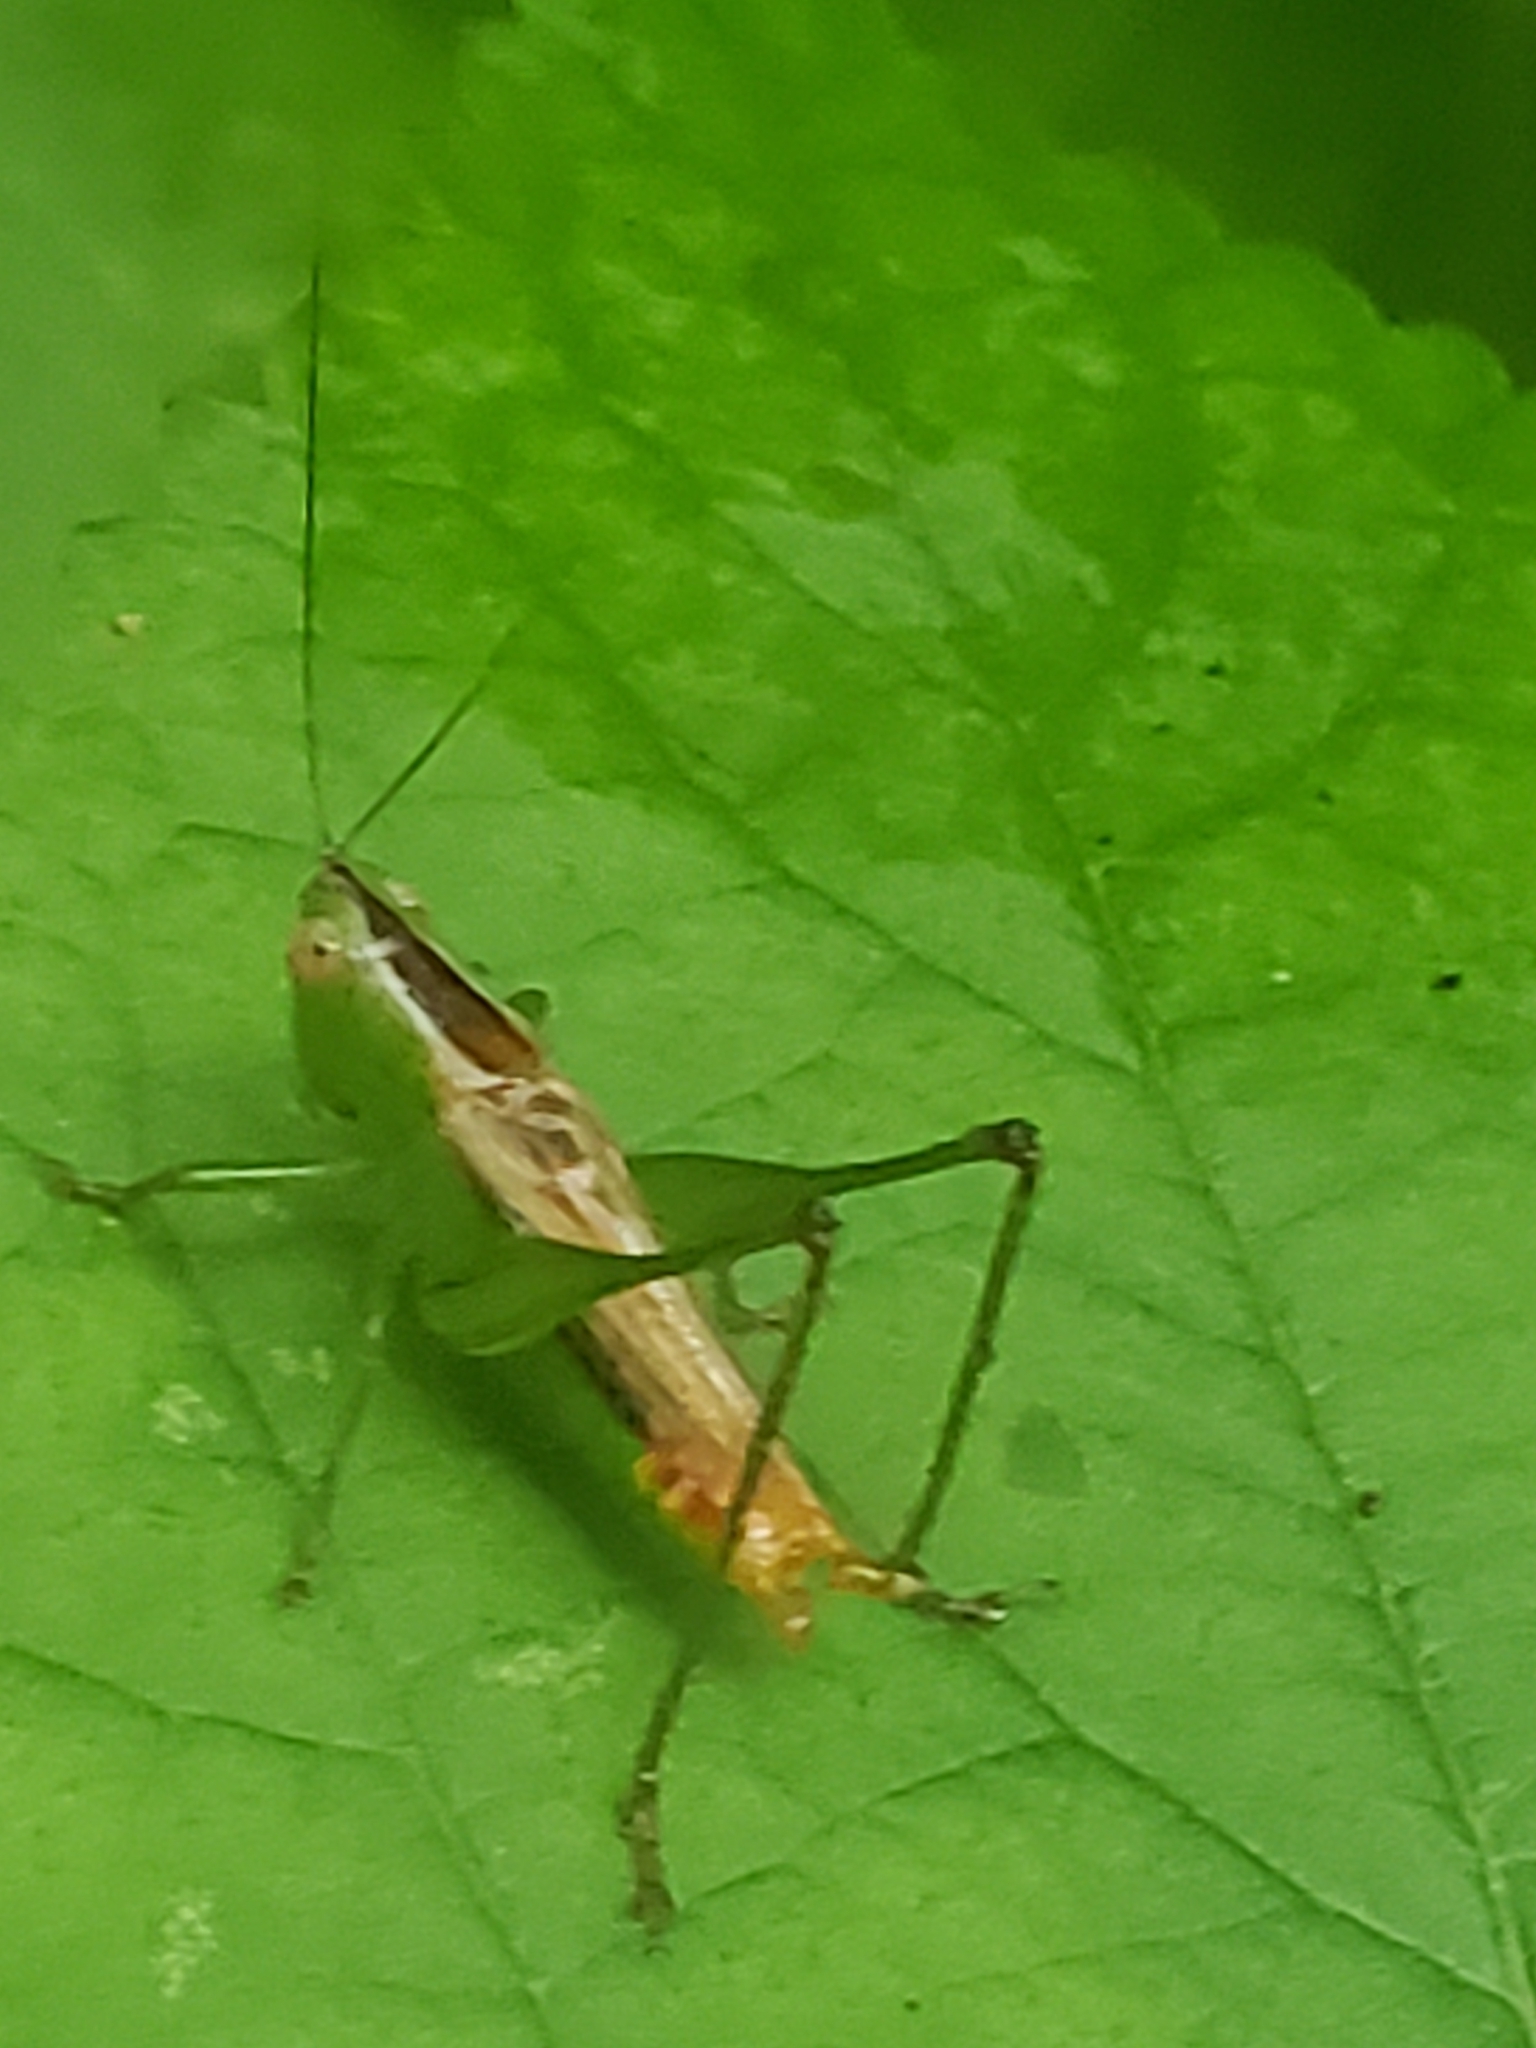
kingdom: Animalia
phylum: Arthropoda
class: Insecta
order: Orthoptera
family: Tettigoniidae
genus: Conocephalus
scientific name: Conocephalus brevipennis
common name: Short-winged meadow katydid
